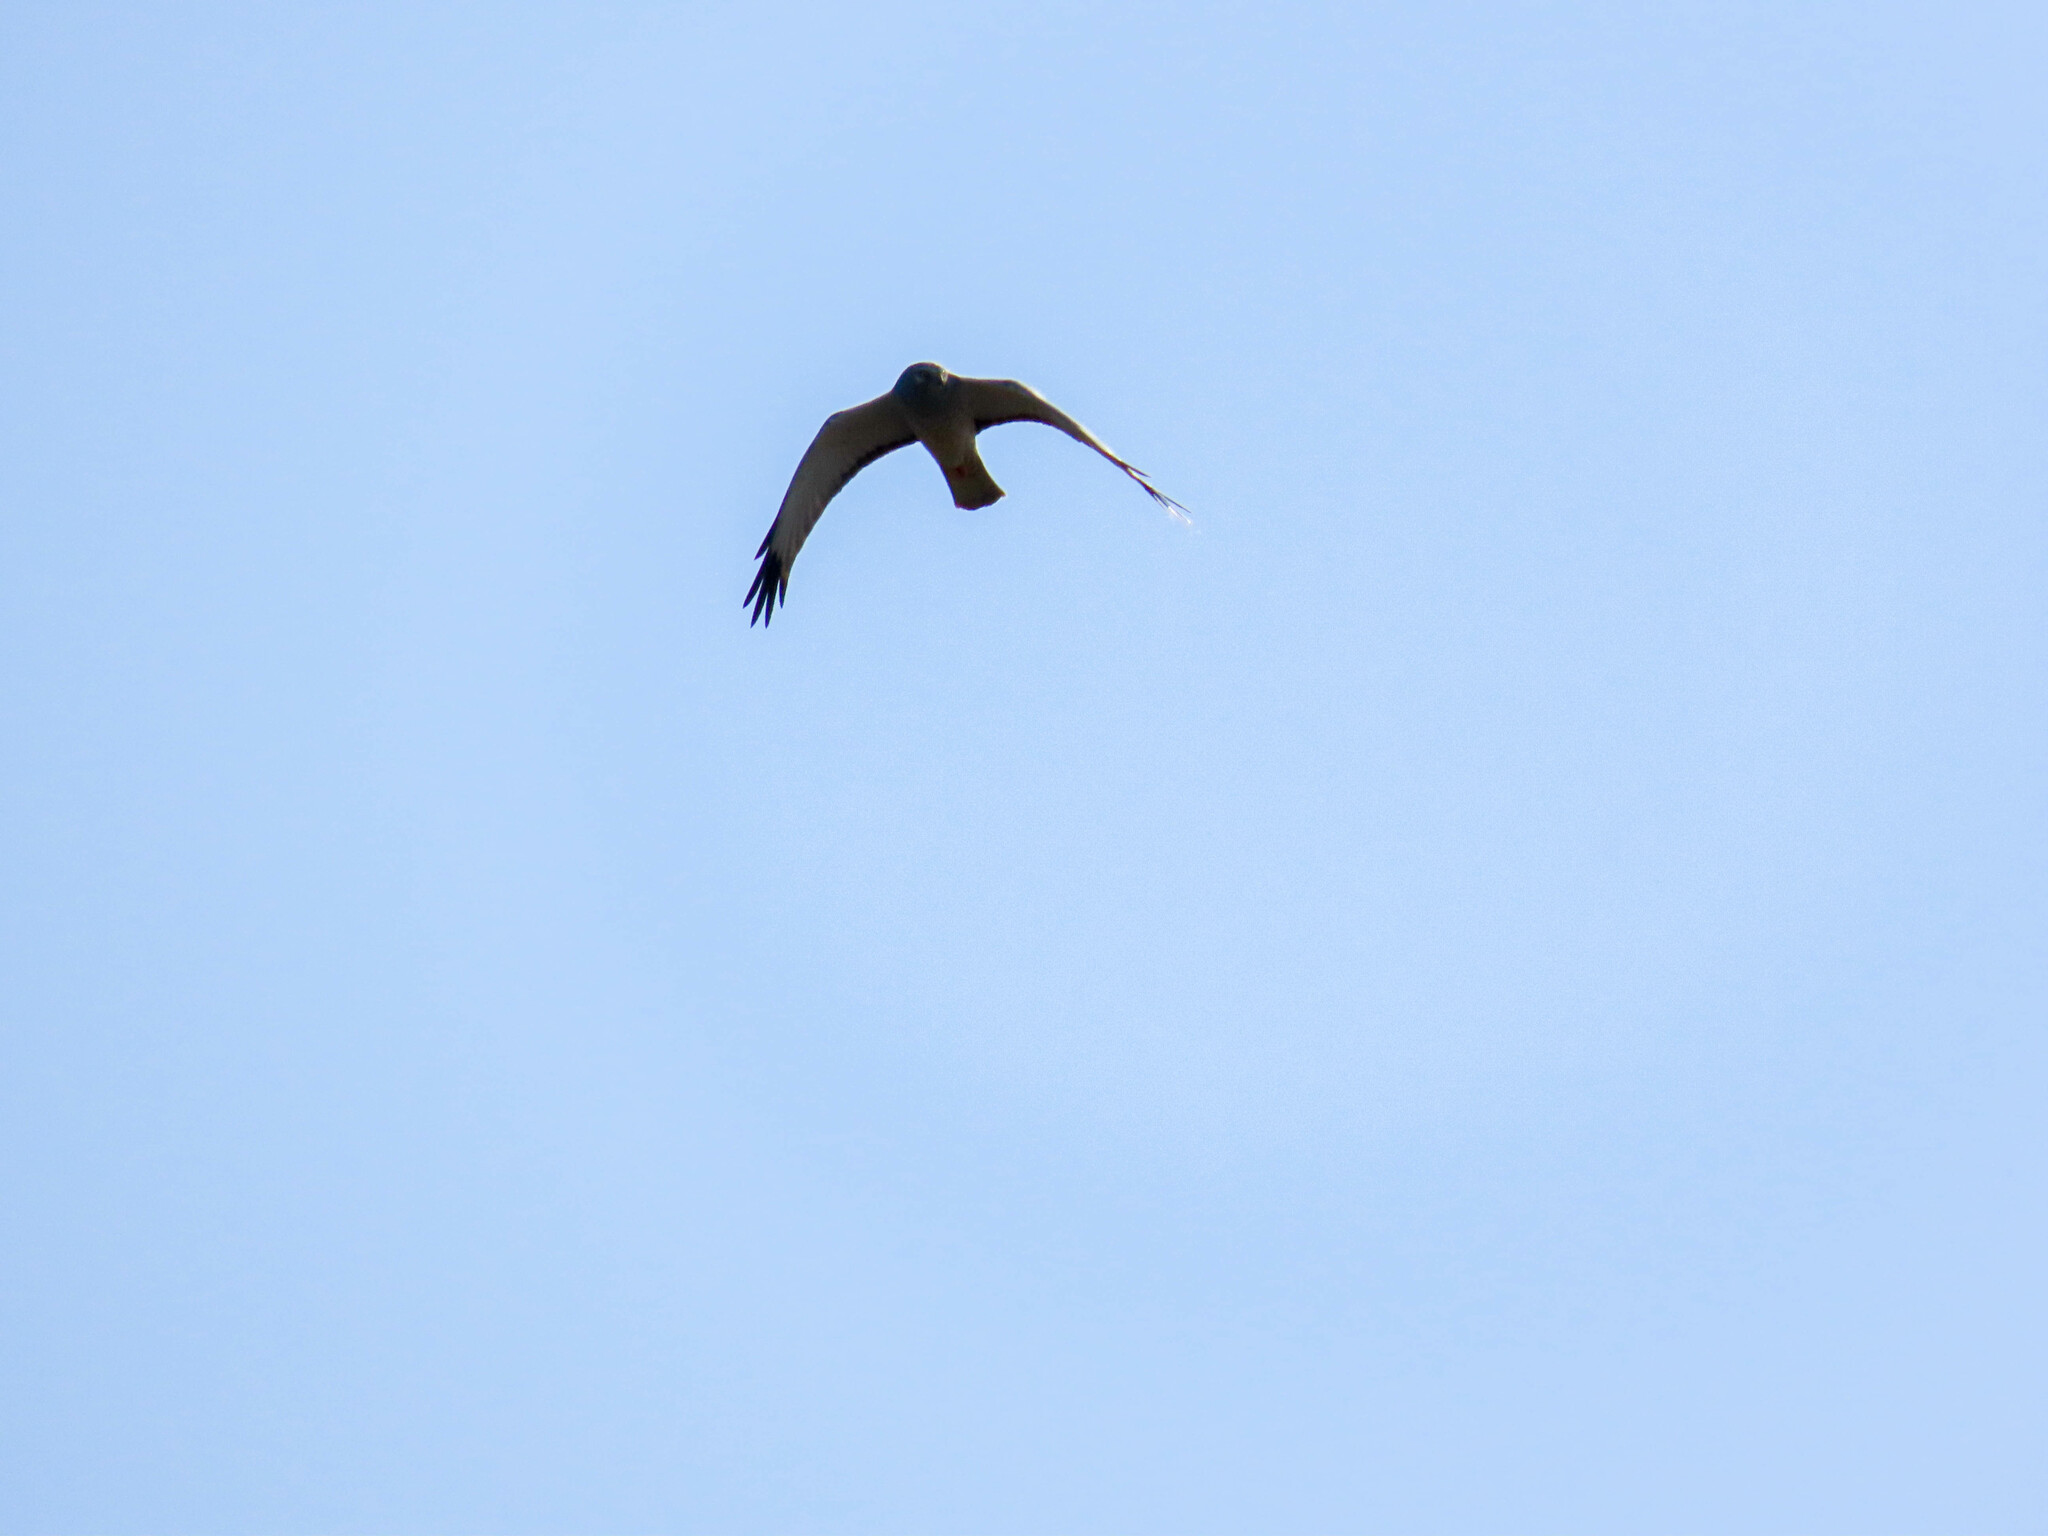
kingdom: Animalia
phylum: Chordata
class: Aves
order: Accipitriformes
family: Accipitridae
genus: Circus
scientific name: Circus cyaneus
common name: Hen harrier
